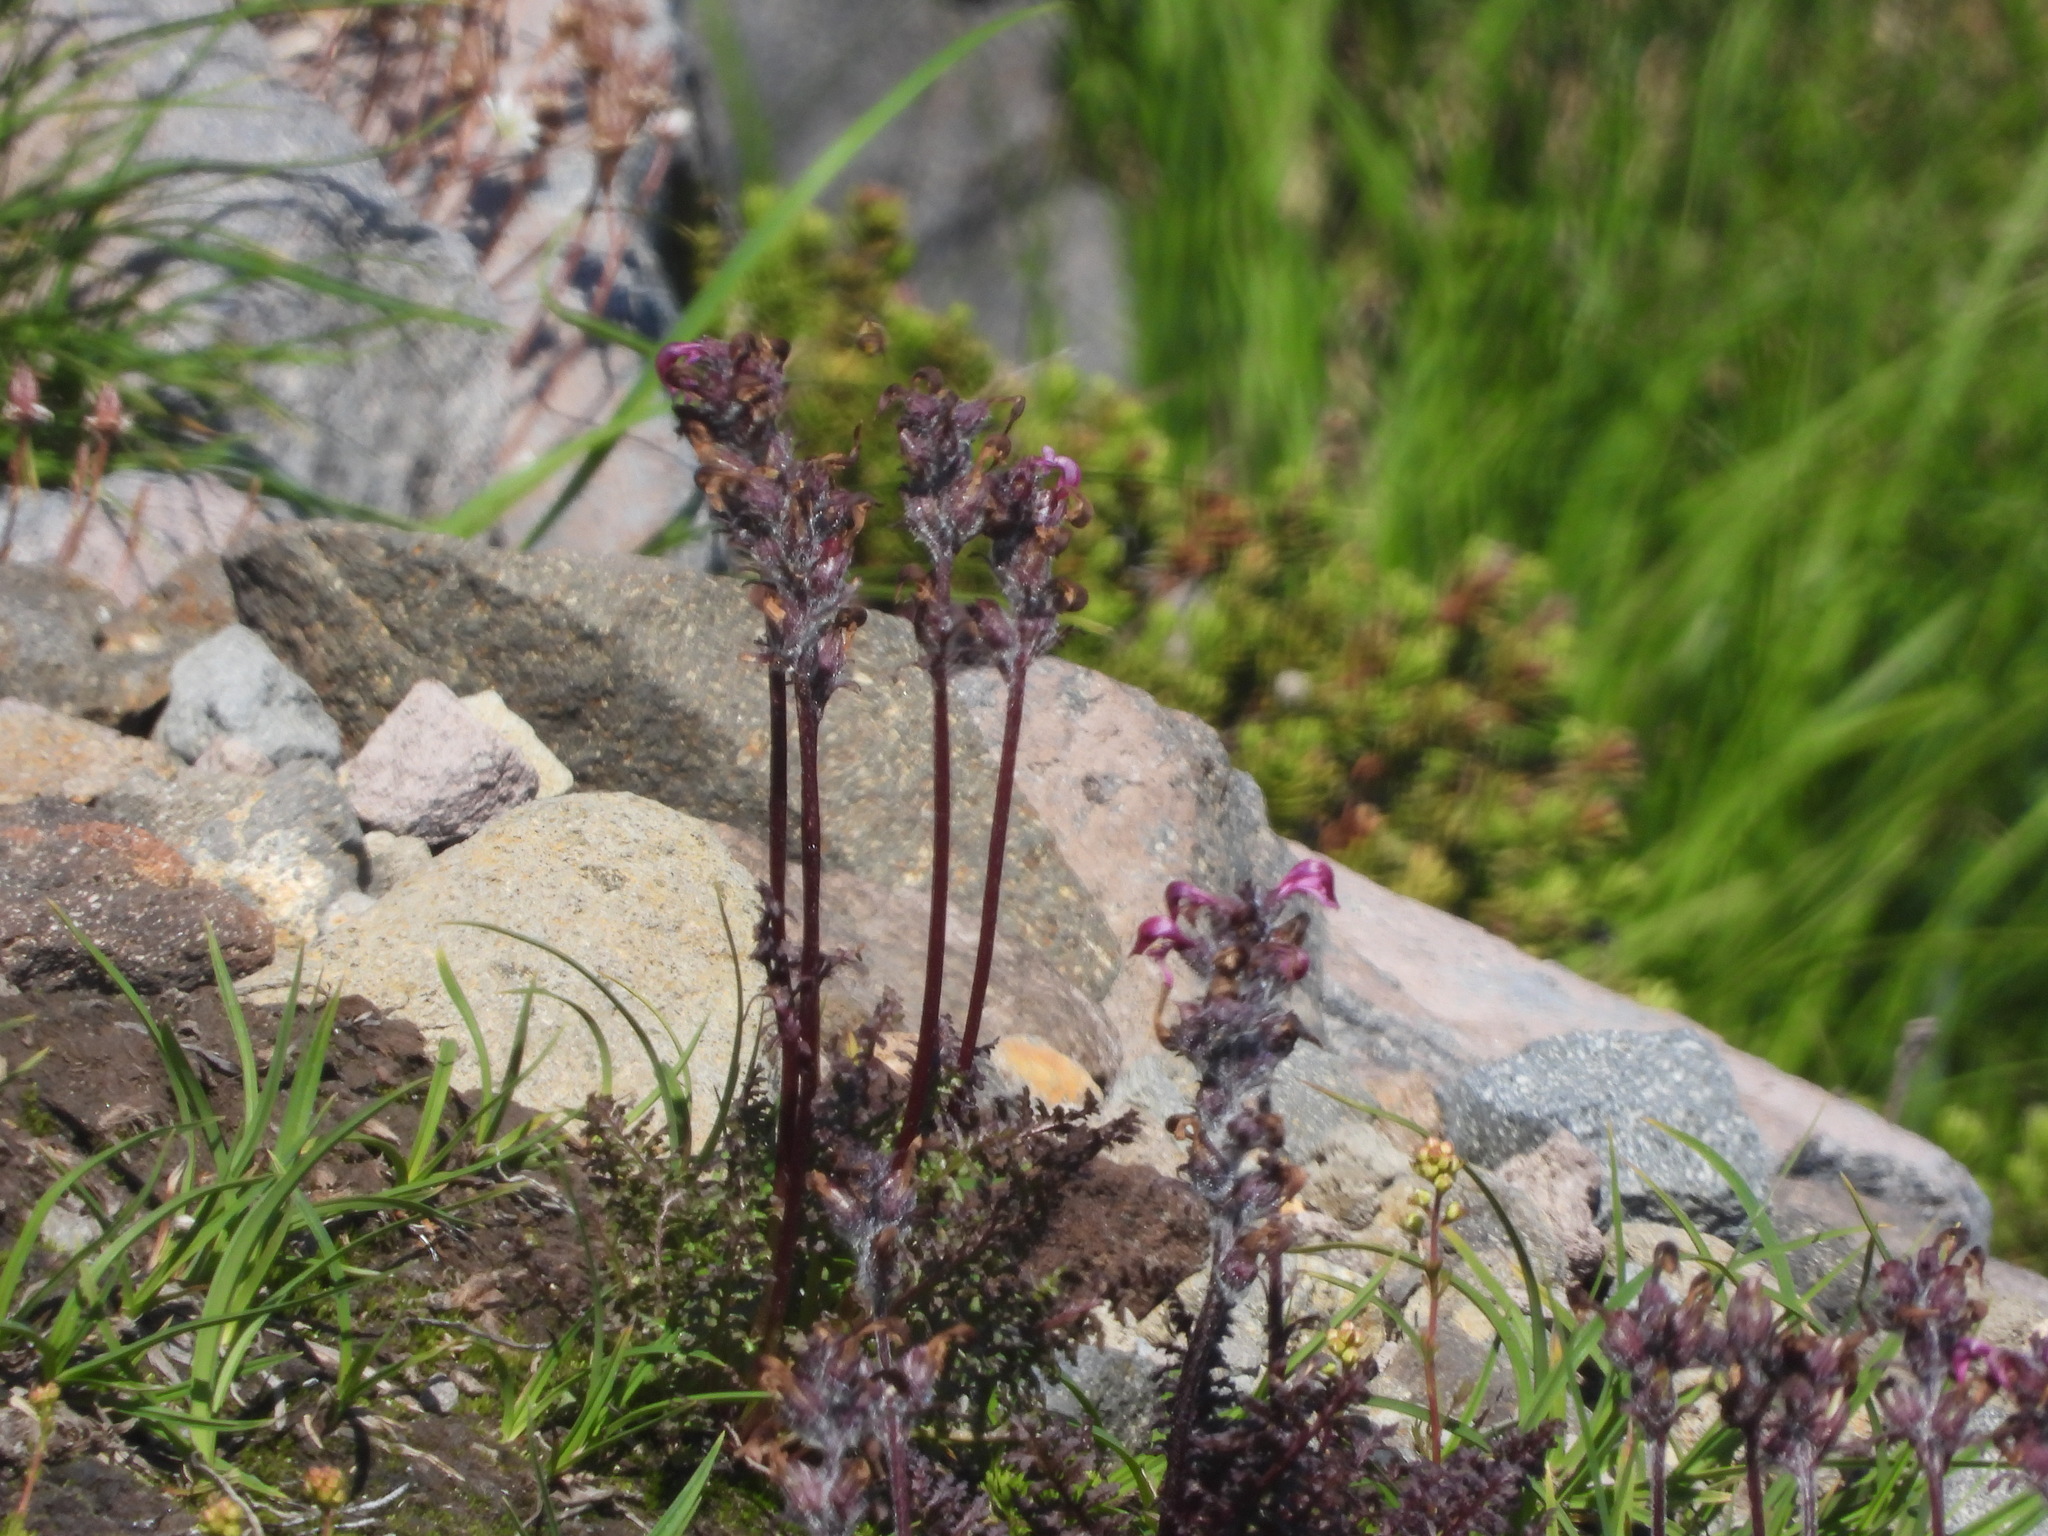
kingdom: Plantae
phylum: Tracheophyta
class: Magnoliopsida
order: Lamiales
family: Orobanchaceae
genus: Pedicularis
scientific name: Pedicularis ornithorhynchos
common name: Bird's-beak lousewort
